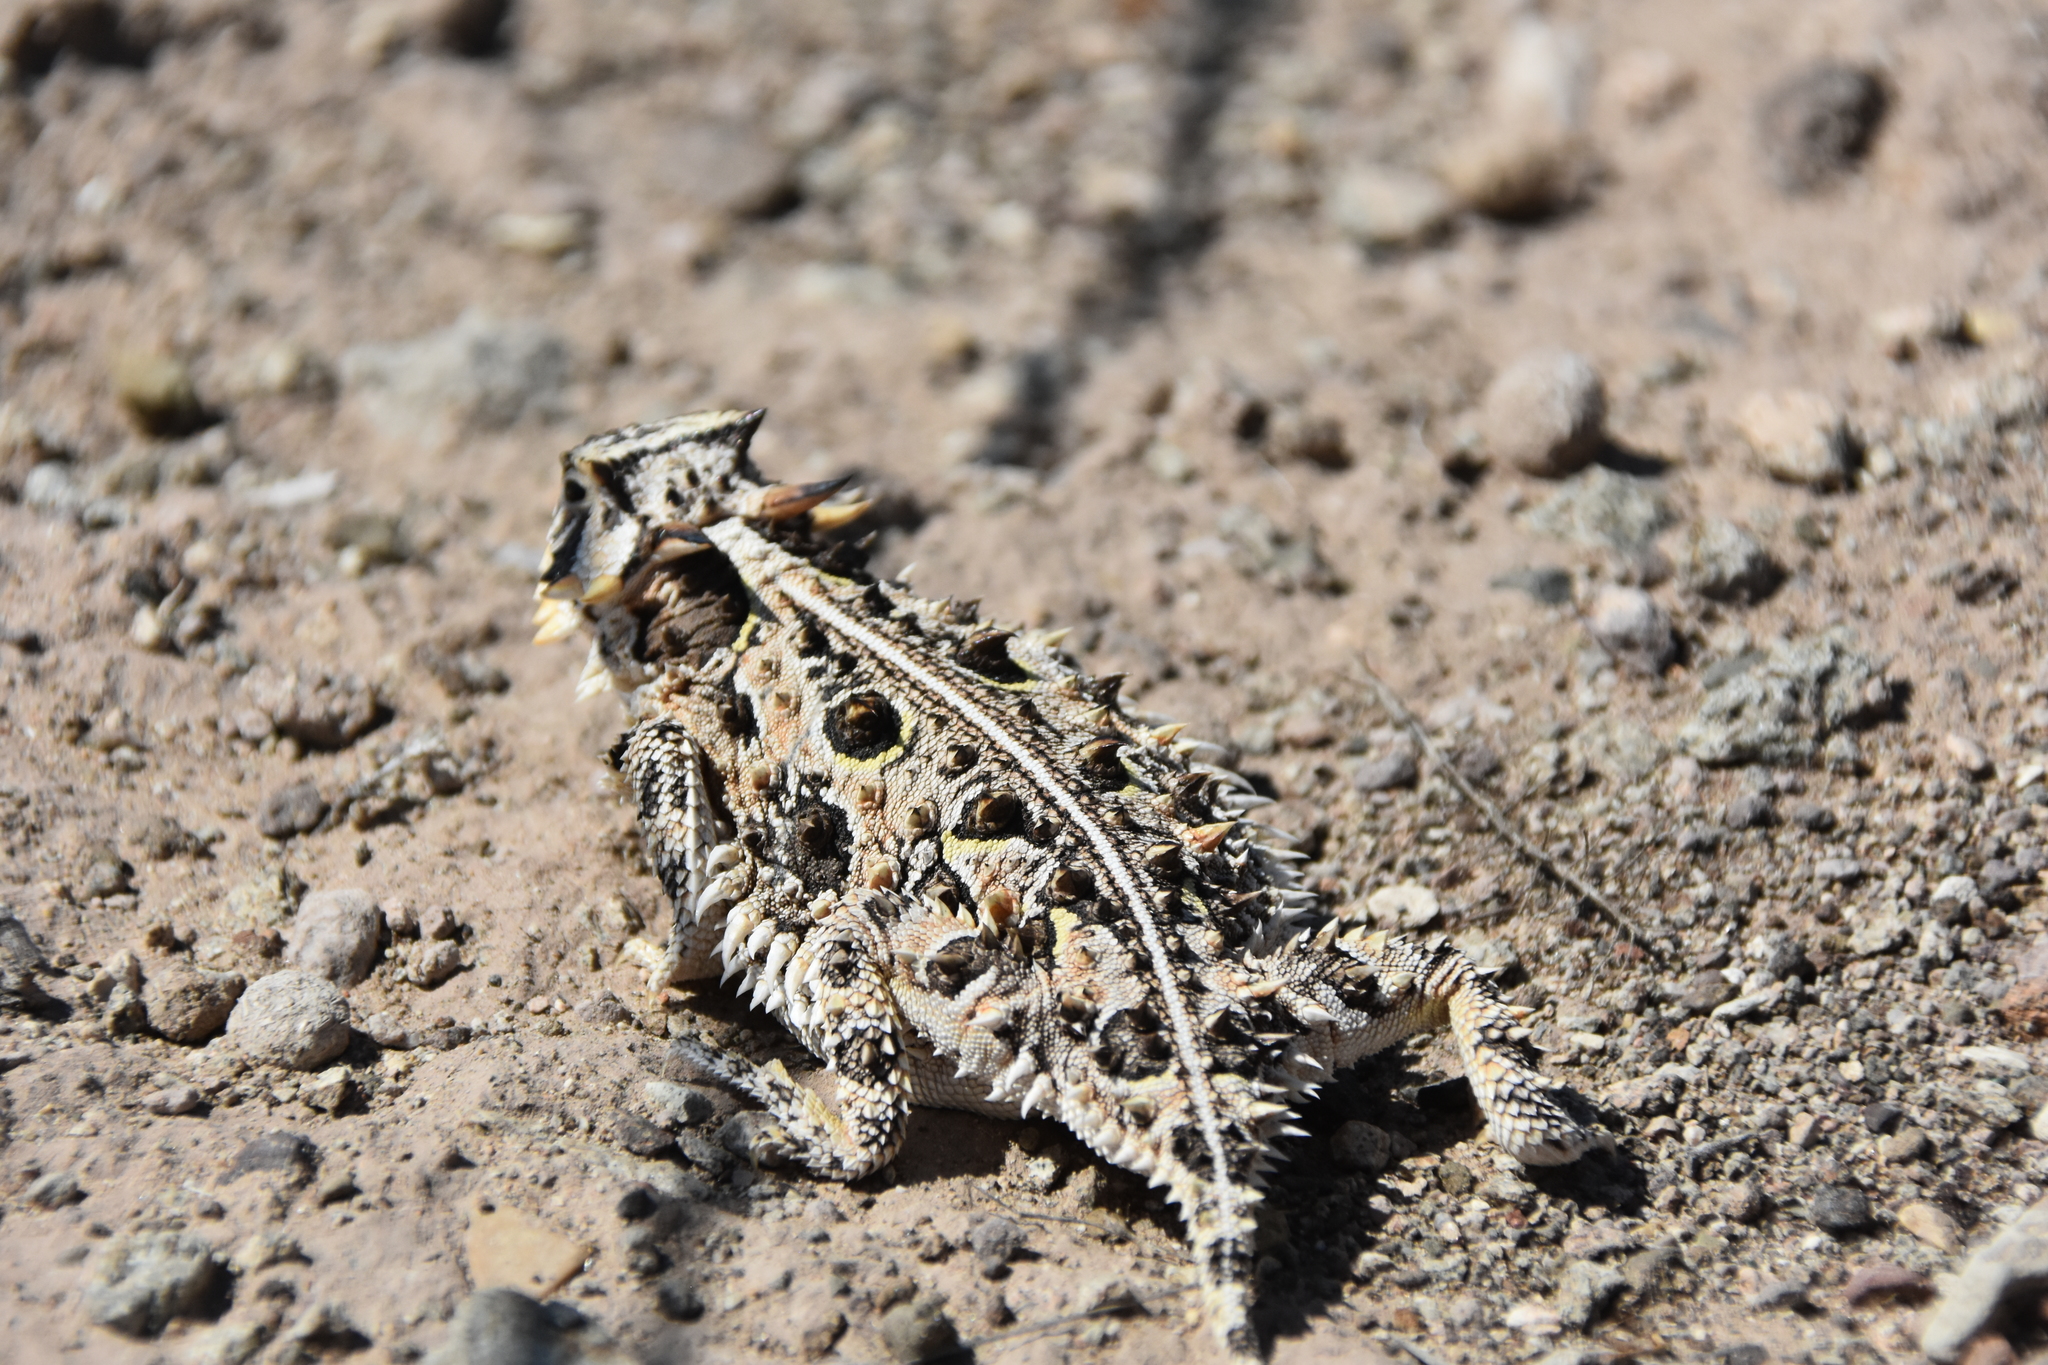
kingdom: Animalia
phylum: Chordata
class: Squamata
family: Phrynosomatidae
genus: Phrynosoma
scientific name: Phrynosoma cornutum
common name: Texas horned lizard
